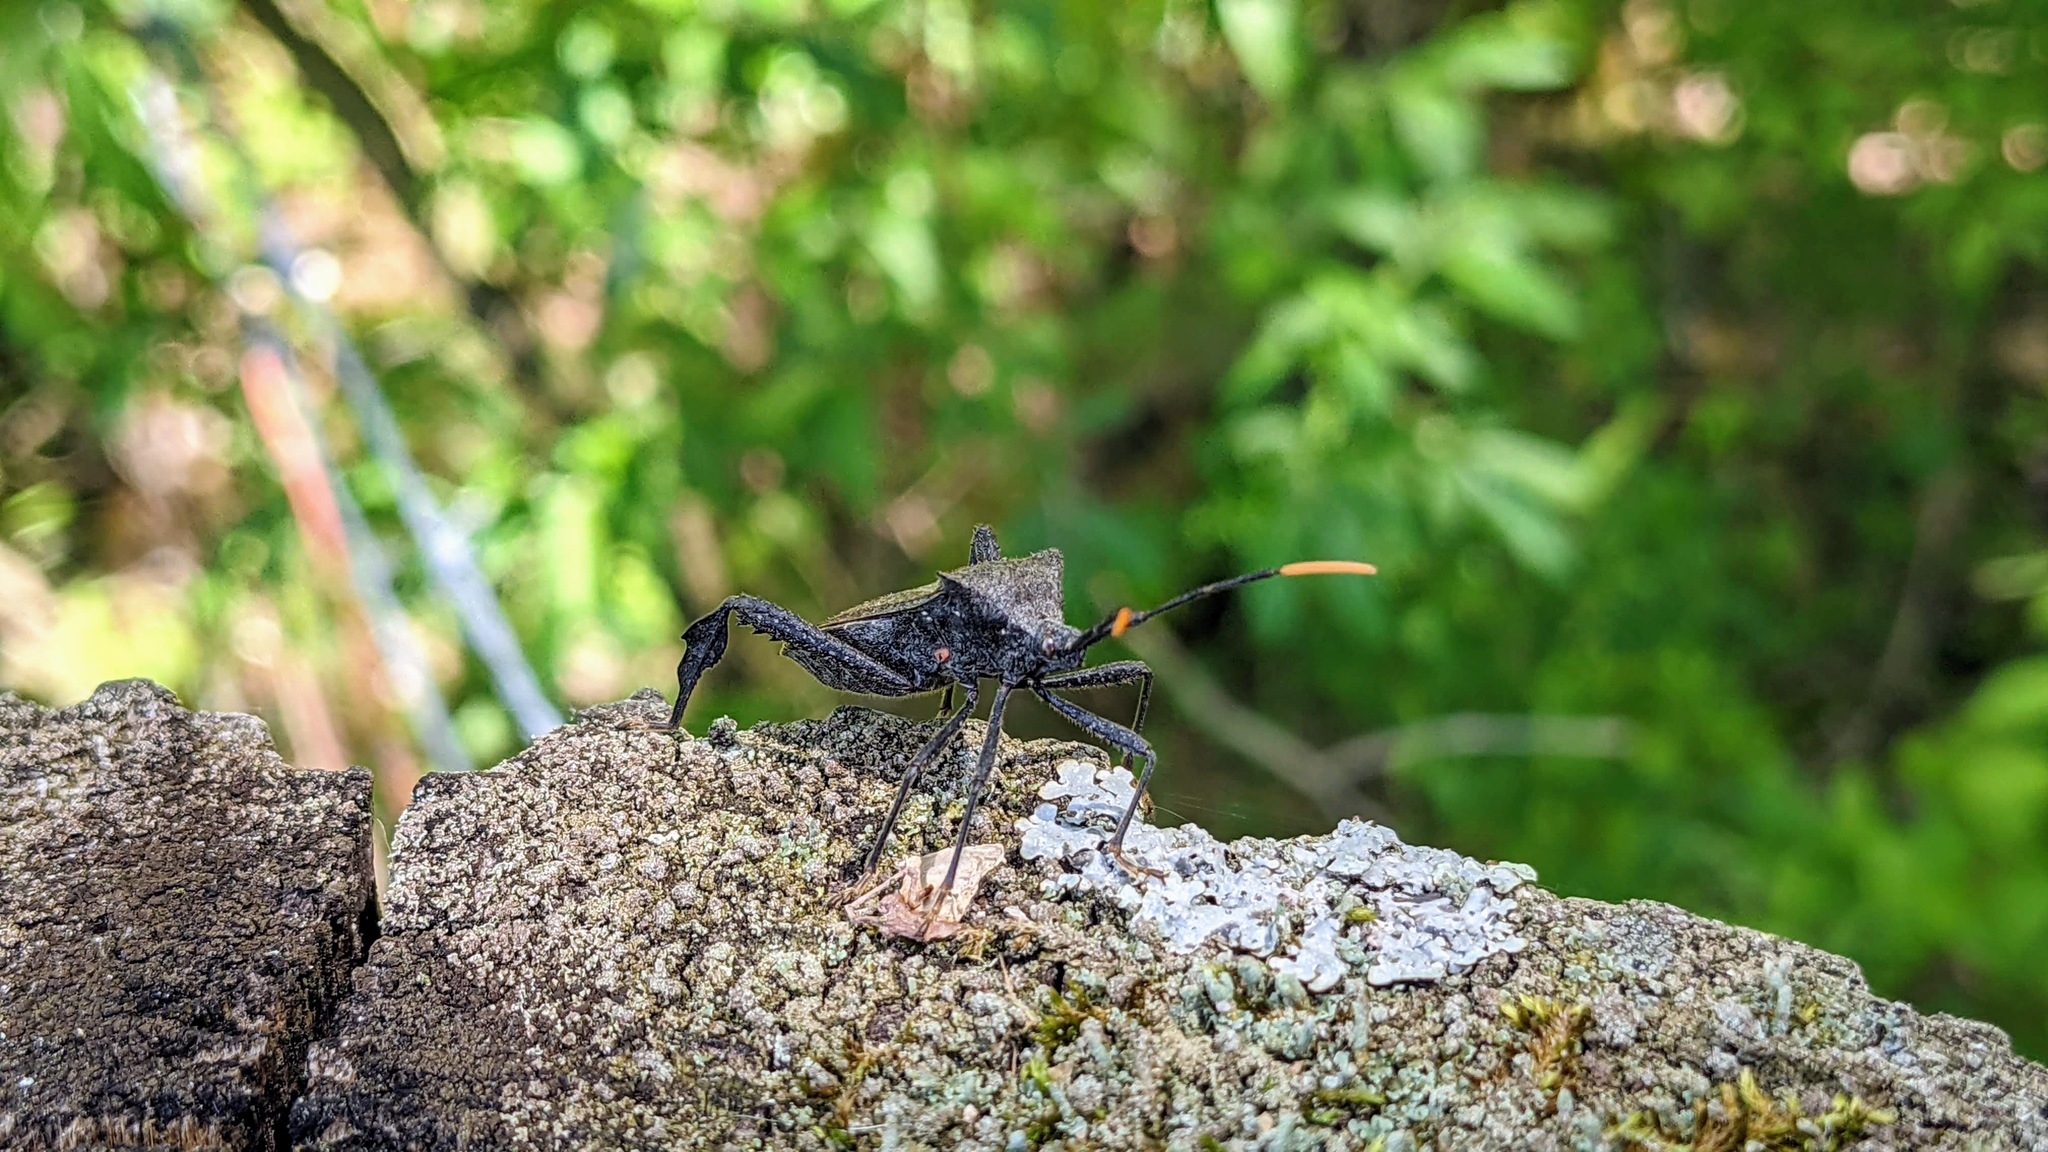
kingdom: Animalia
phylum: Arthropoda
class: Insecta
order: Hemiptera
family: Coreidae
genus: Acanthocephala
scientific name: Acanthocephala terminalis
